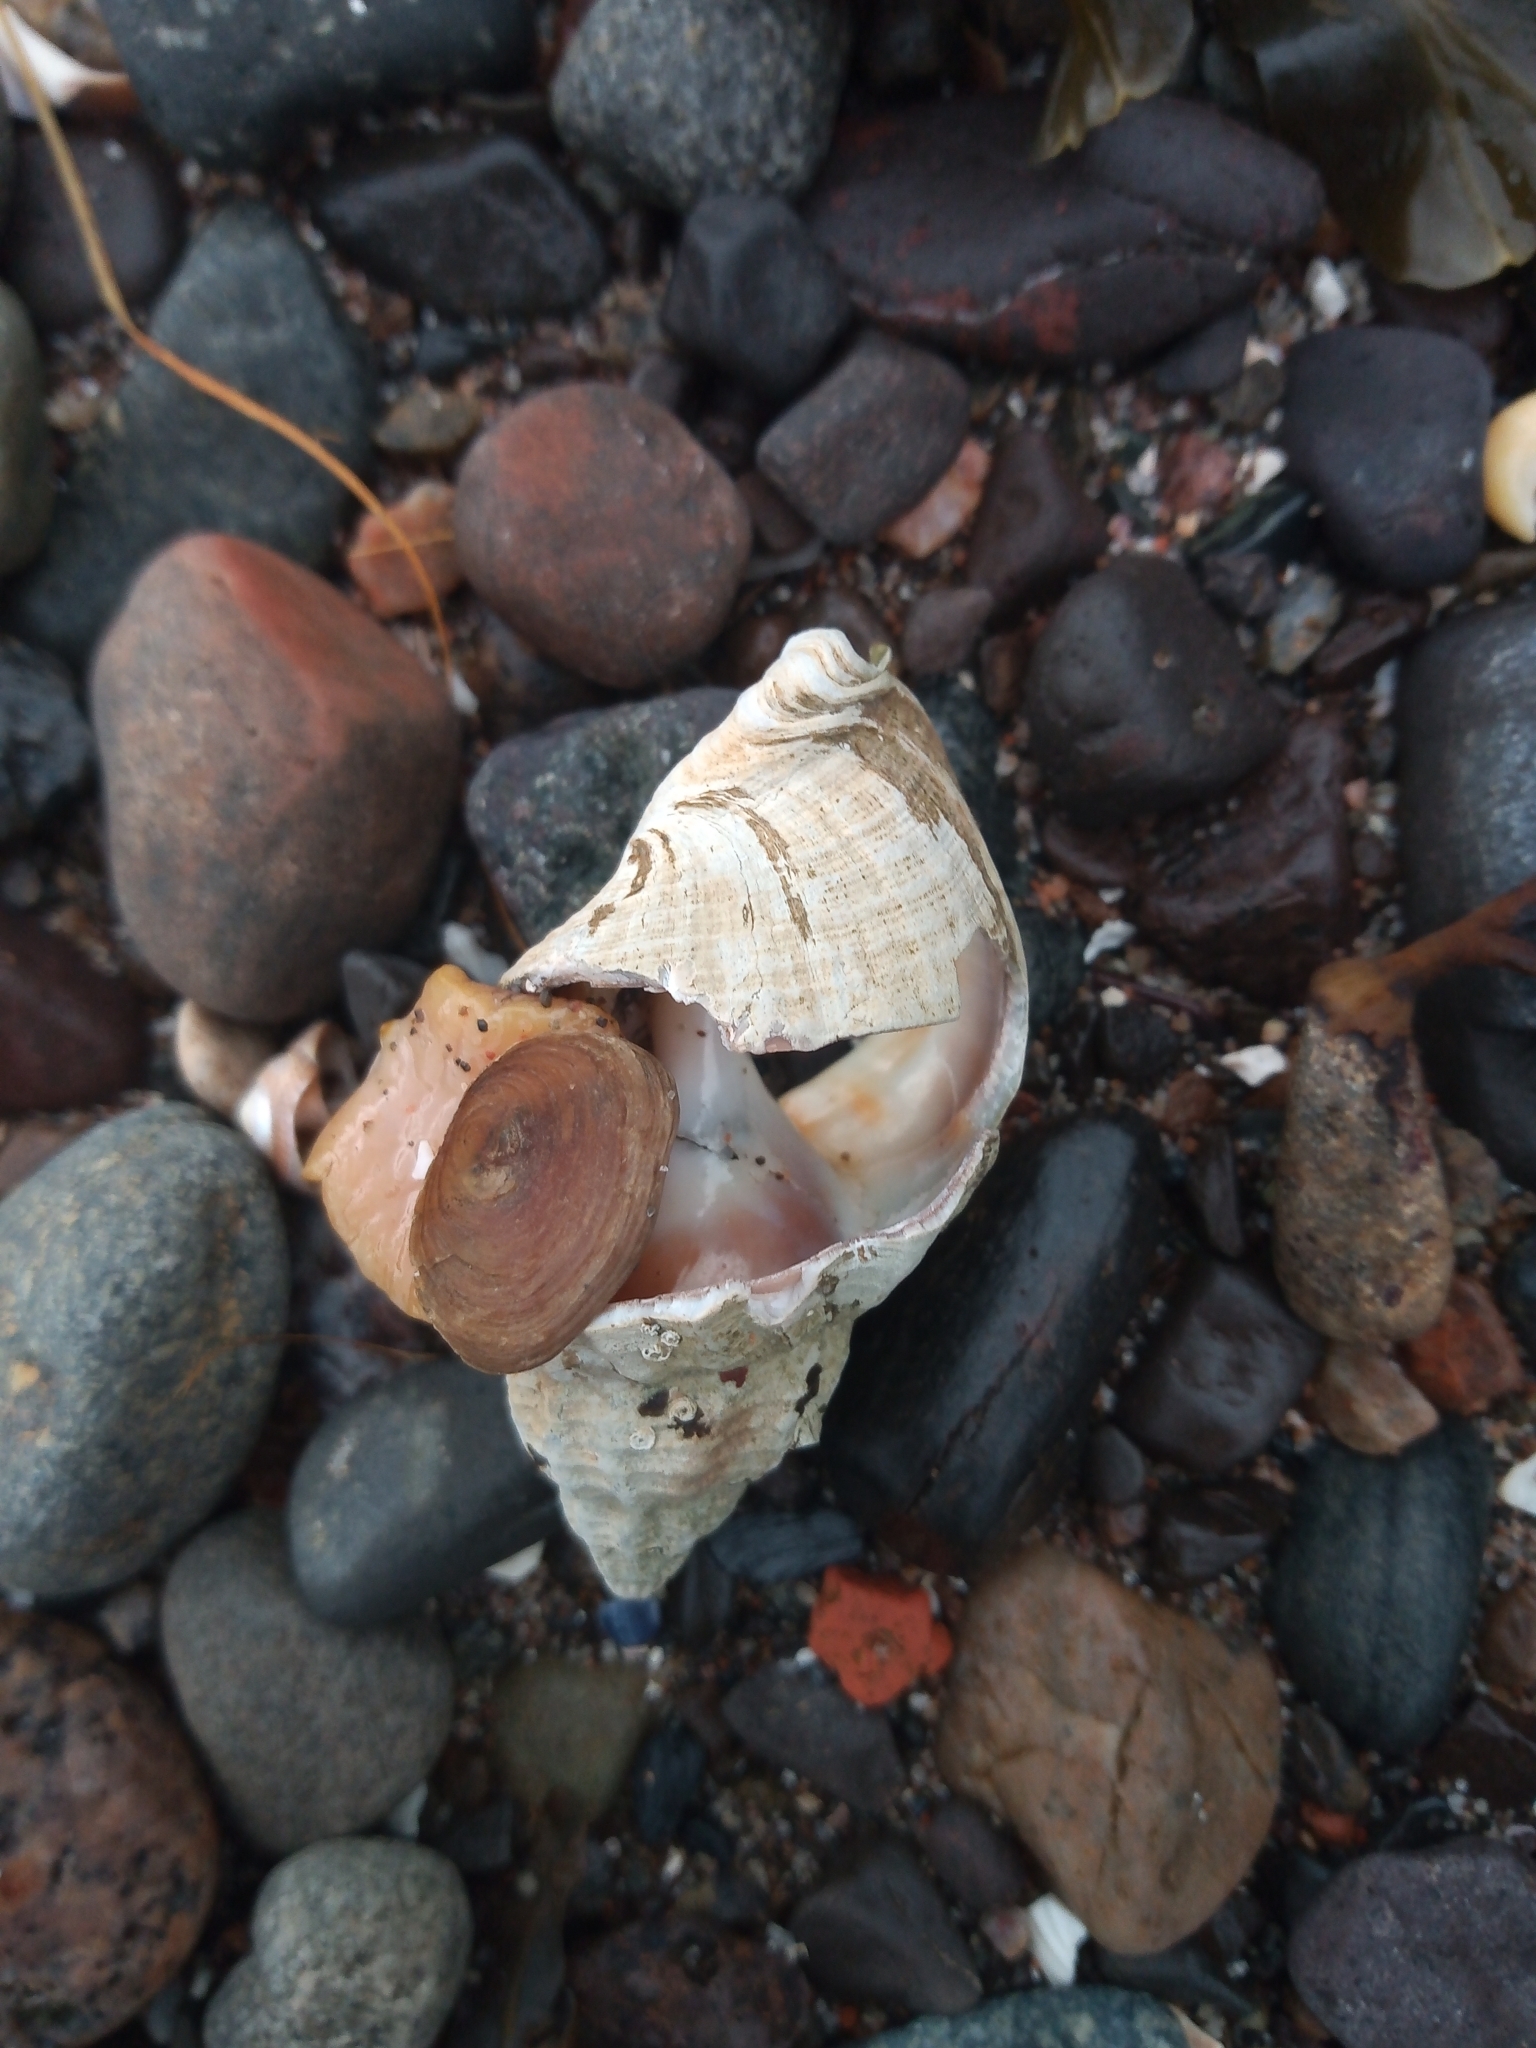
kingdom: Animalia
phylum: Mollusca
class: Gastropoda
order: Neogastropoda
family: Buccinidae
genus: Buccinum
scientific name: Buccinum undatum
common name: Common whelk
